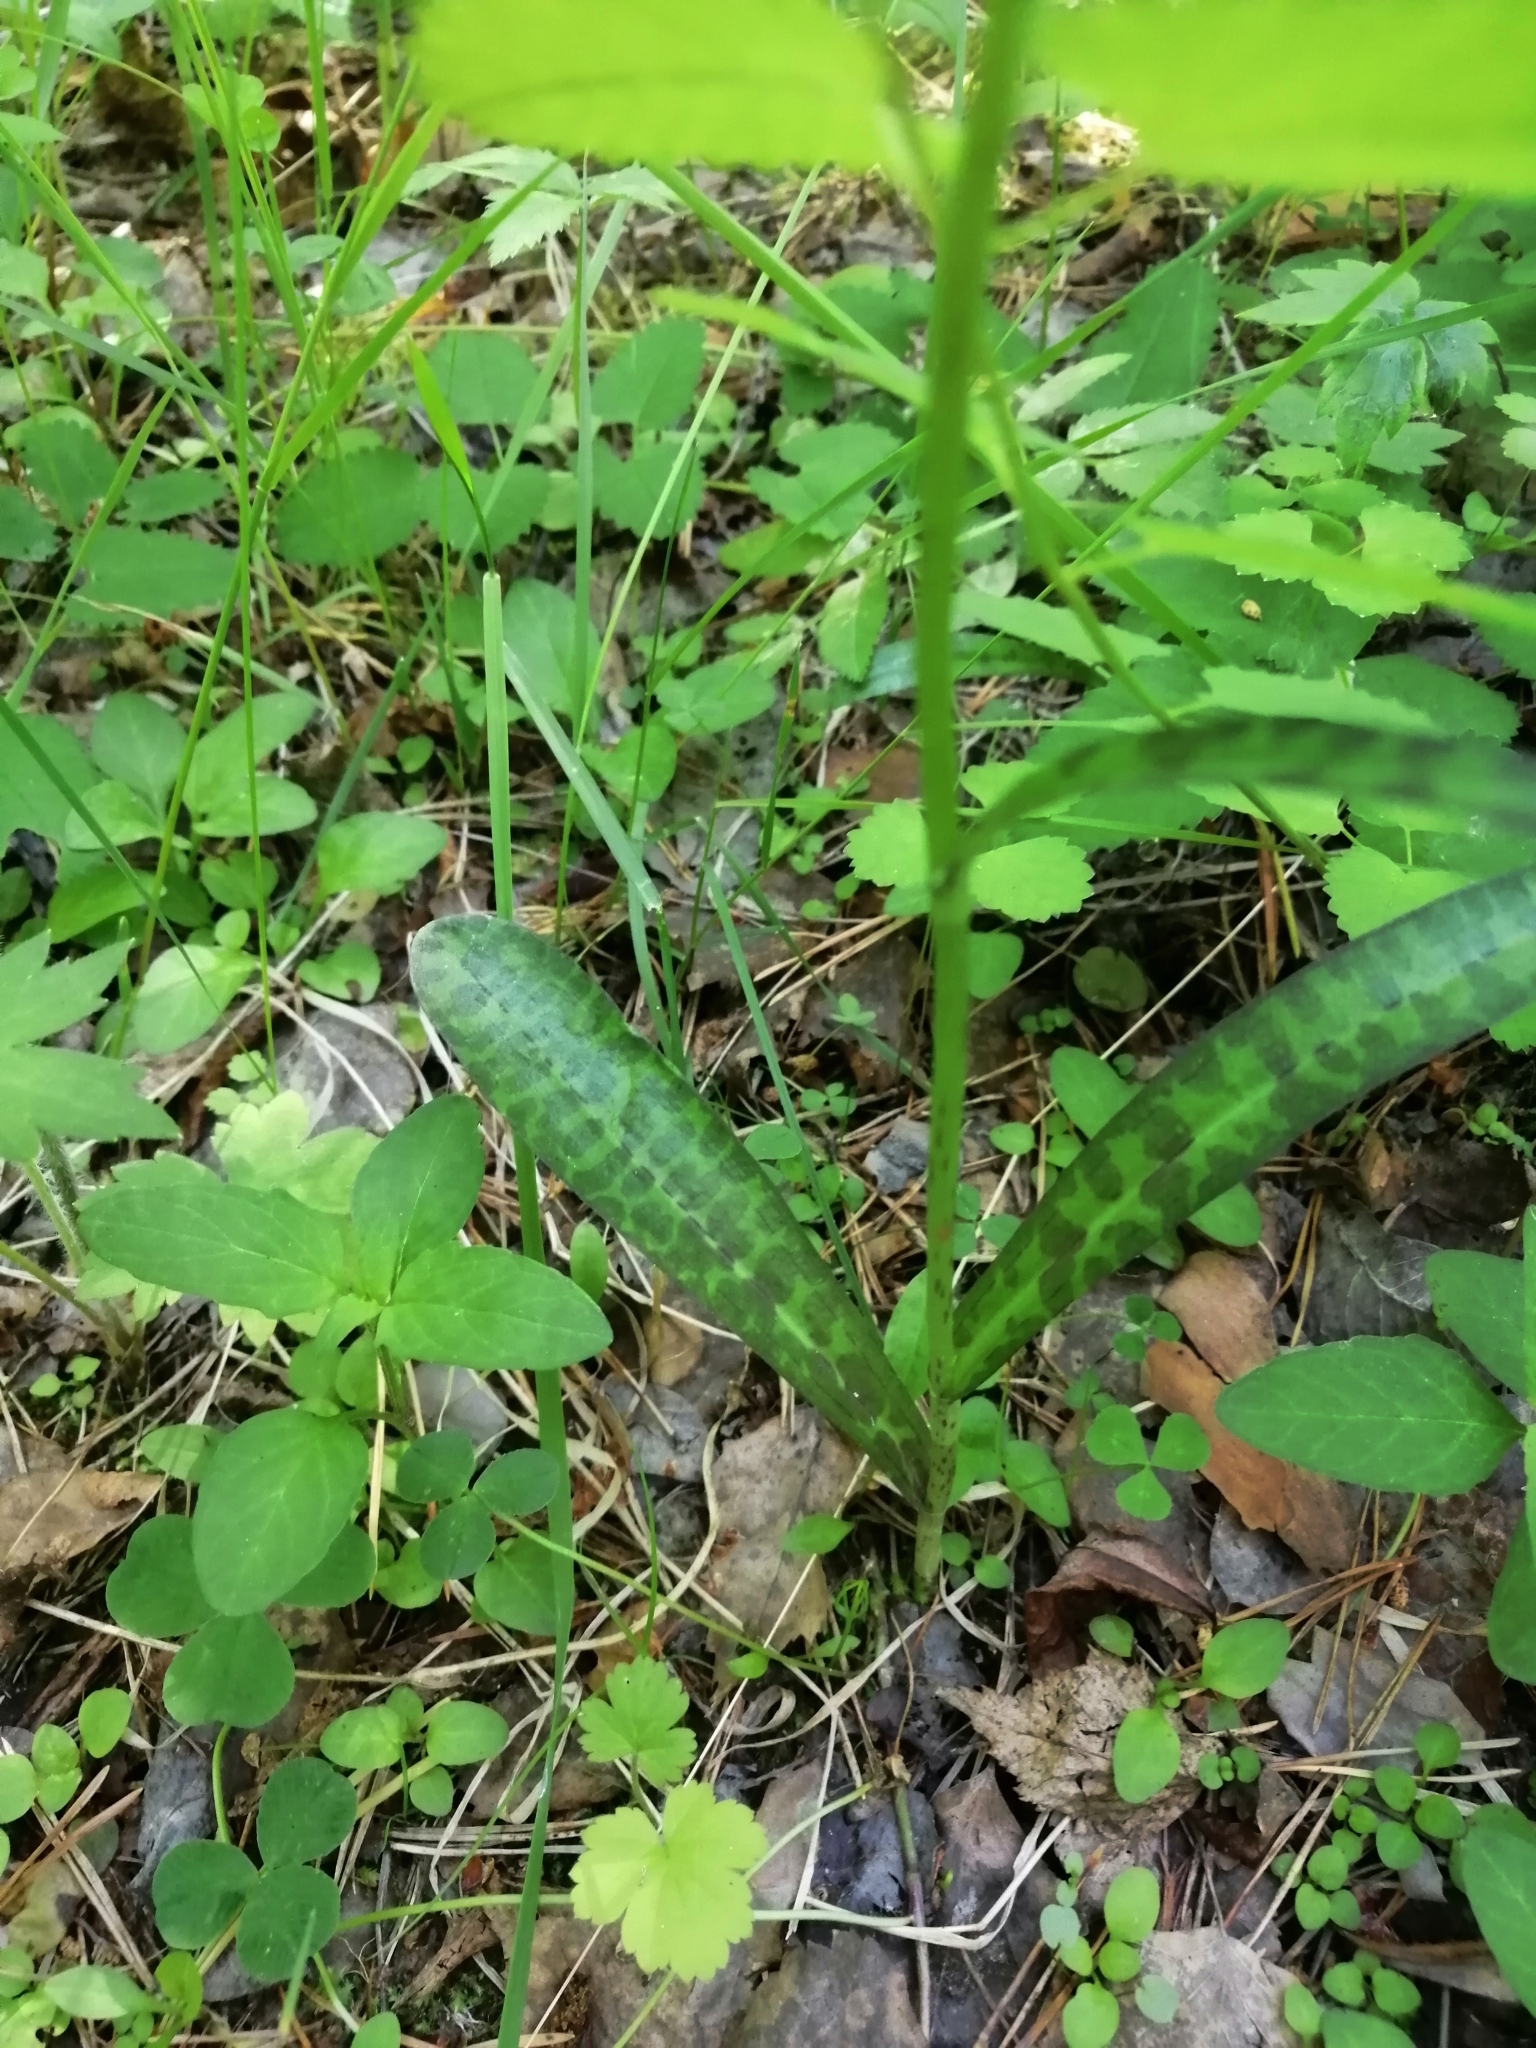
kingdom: Plantae
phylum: Tracheophyta
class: Liliopsida
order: Asparagales
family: Orchidaceae
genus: Dactylorhiza
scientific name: Dactylorhiza maculata
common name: Heath spotted-orchid
